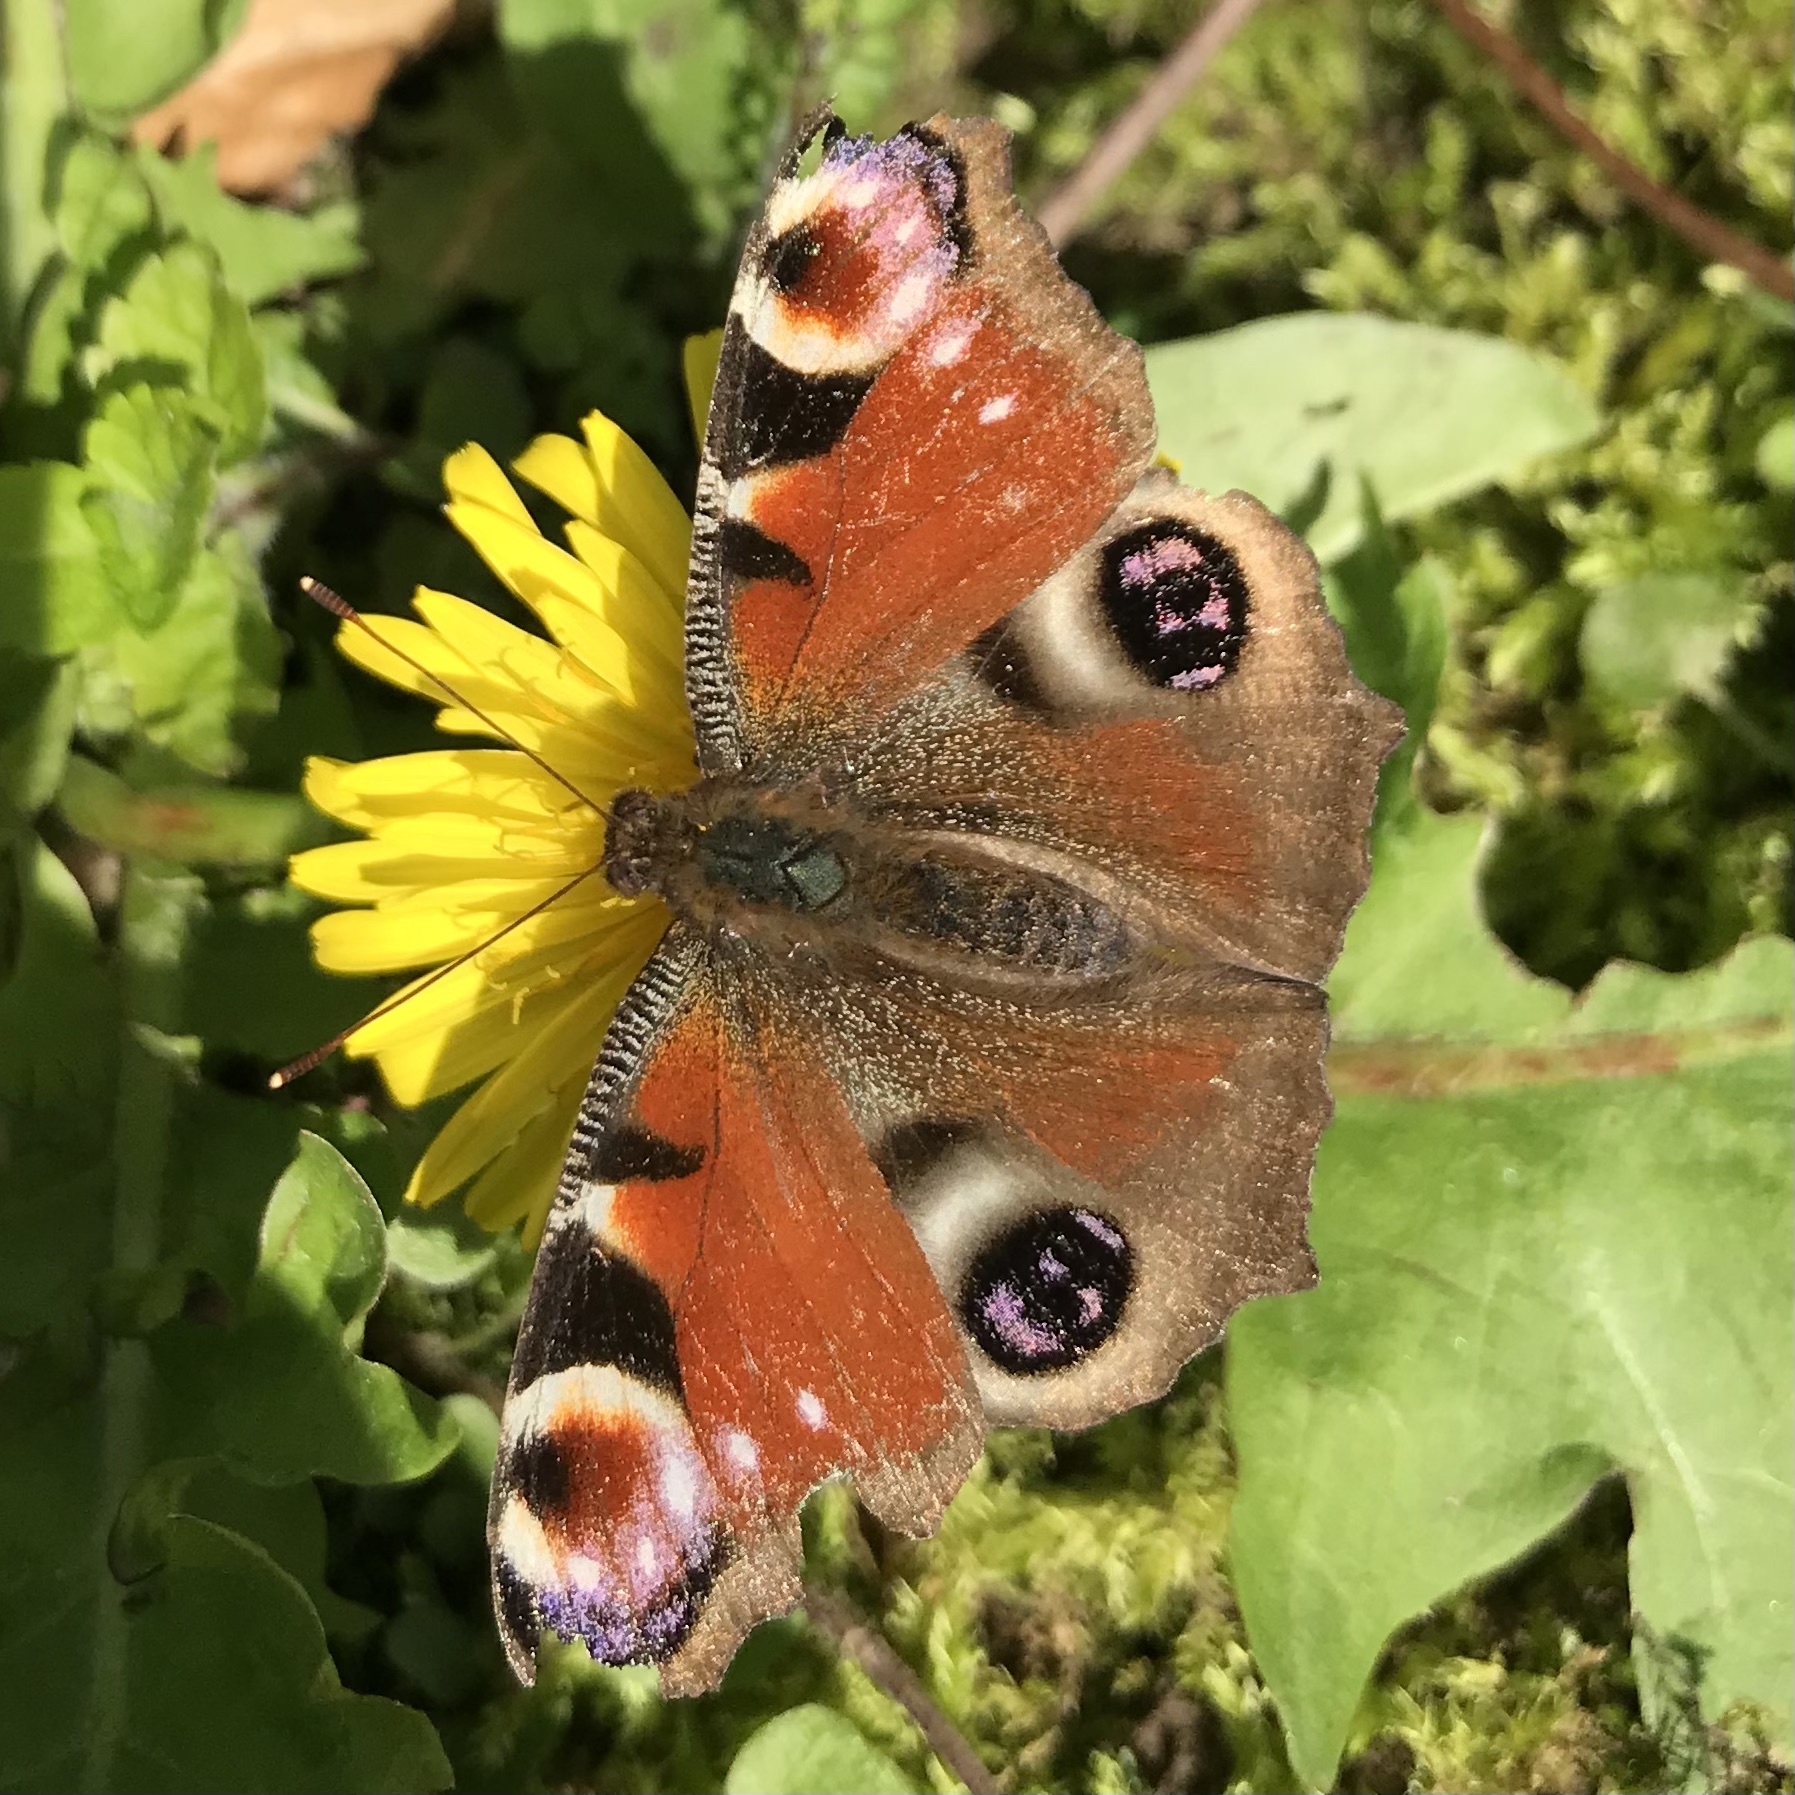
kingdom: Animalia
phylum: Arthropoda
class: Insecta
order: Lepidoptera
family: Nymphalidae
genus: Aglais
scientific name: Aglais io
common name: Peacock
